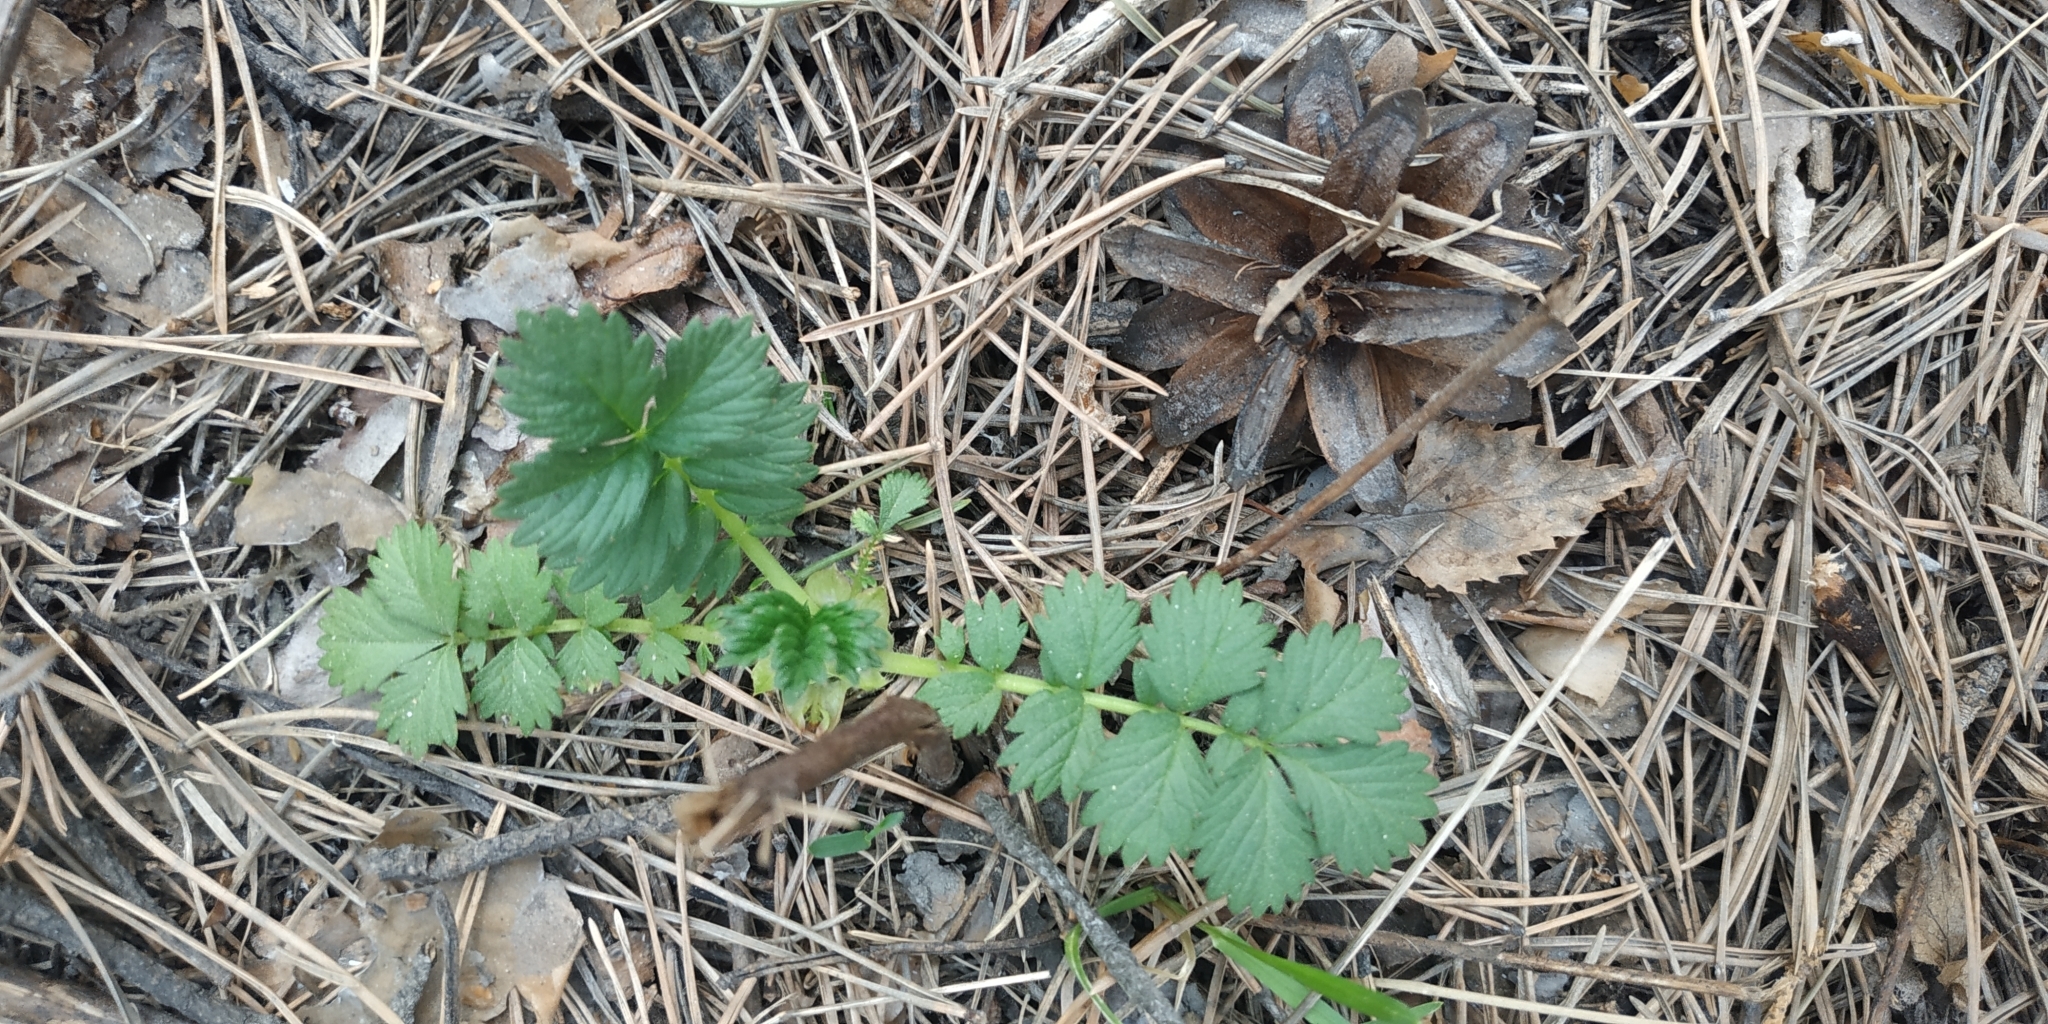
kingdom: Plantae
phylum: Tracheophyta
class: Magnoliopsida
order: Rosales
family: Rosaceae
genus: Agrimonia
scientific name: Agrimonia pilosa
